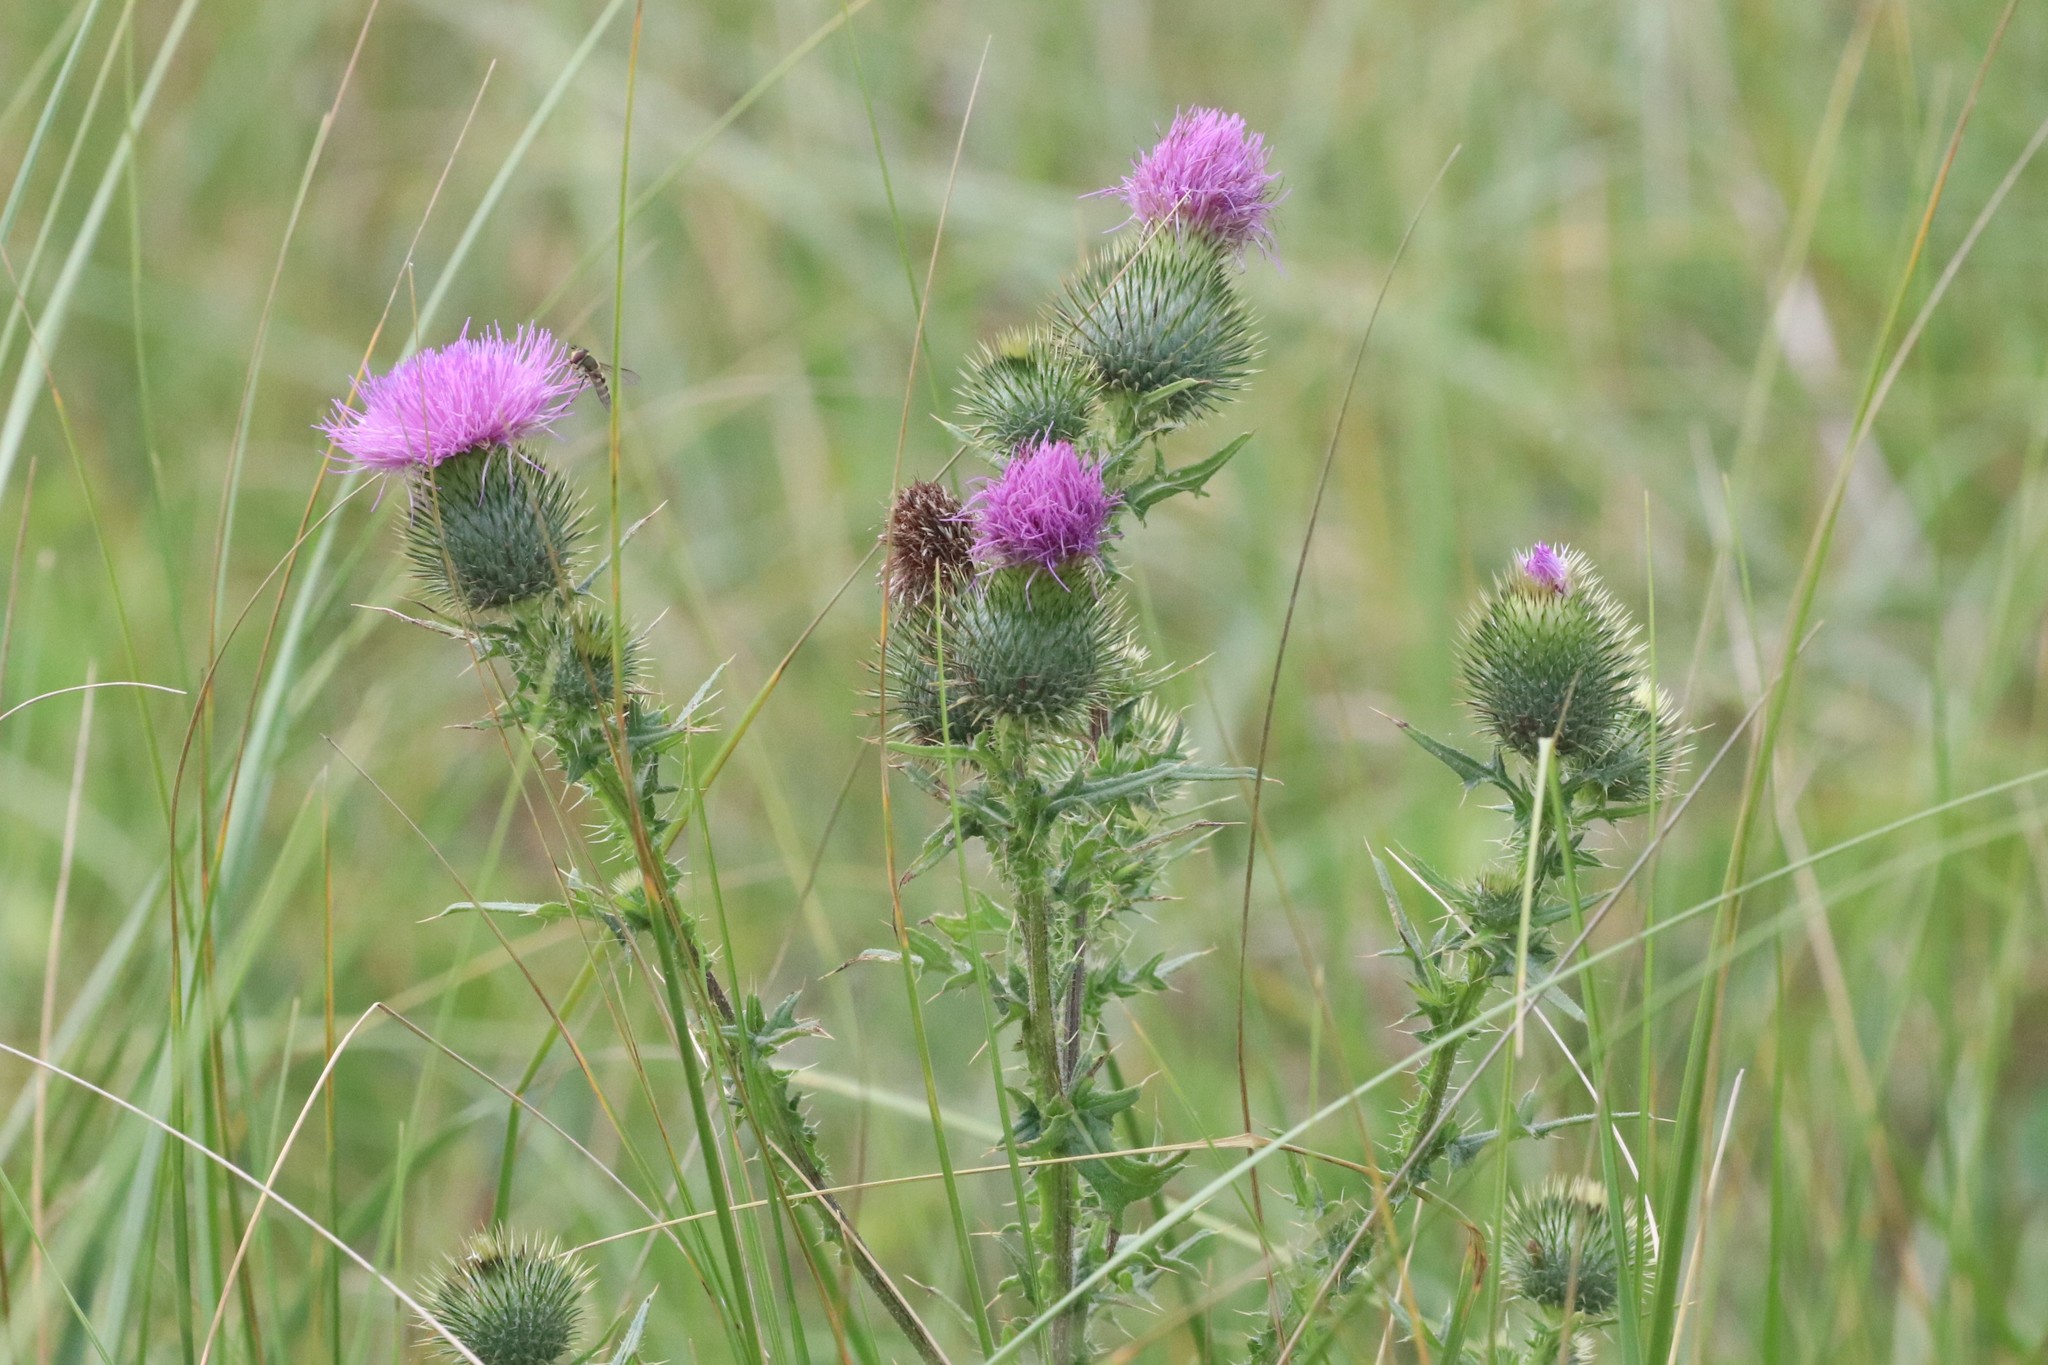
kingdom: Plantae
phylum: Tracheophyta
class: Magnoliopsida
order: Asterales
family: Asteraceae
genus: Cirsium
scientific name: Cirsium vulgare
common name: Bull thistle
